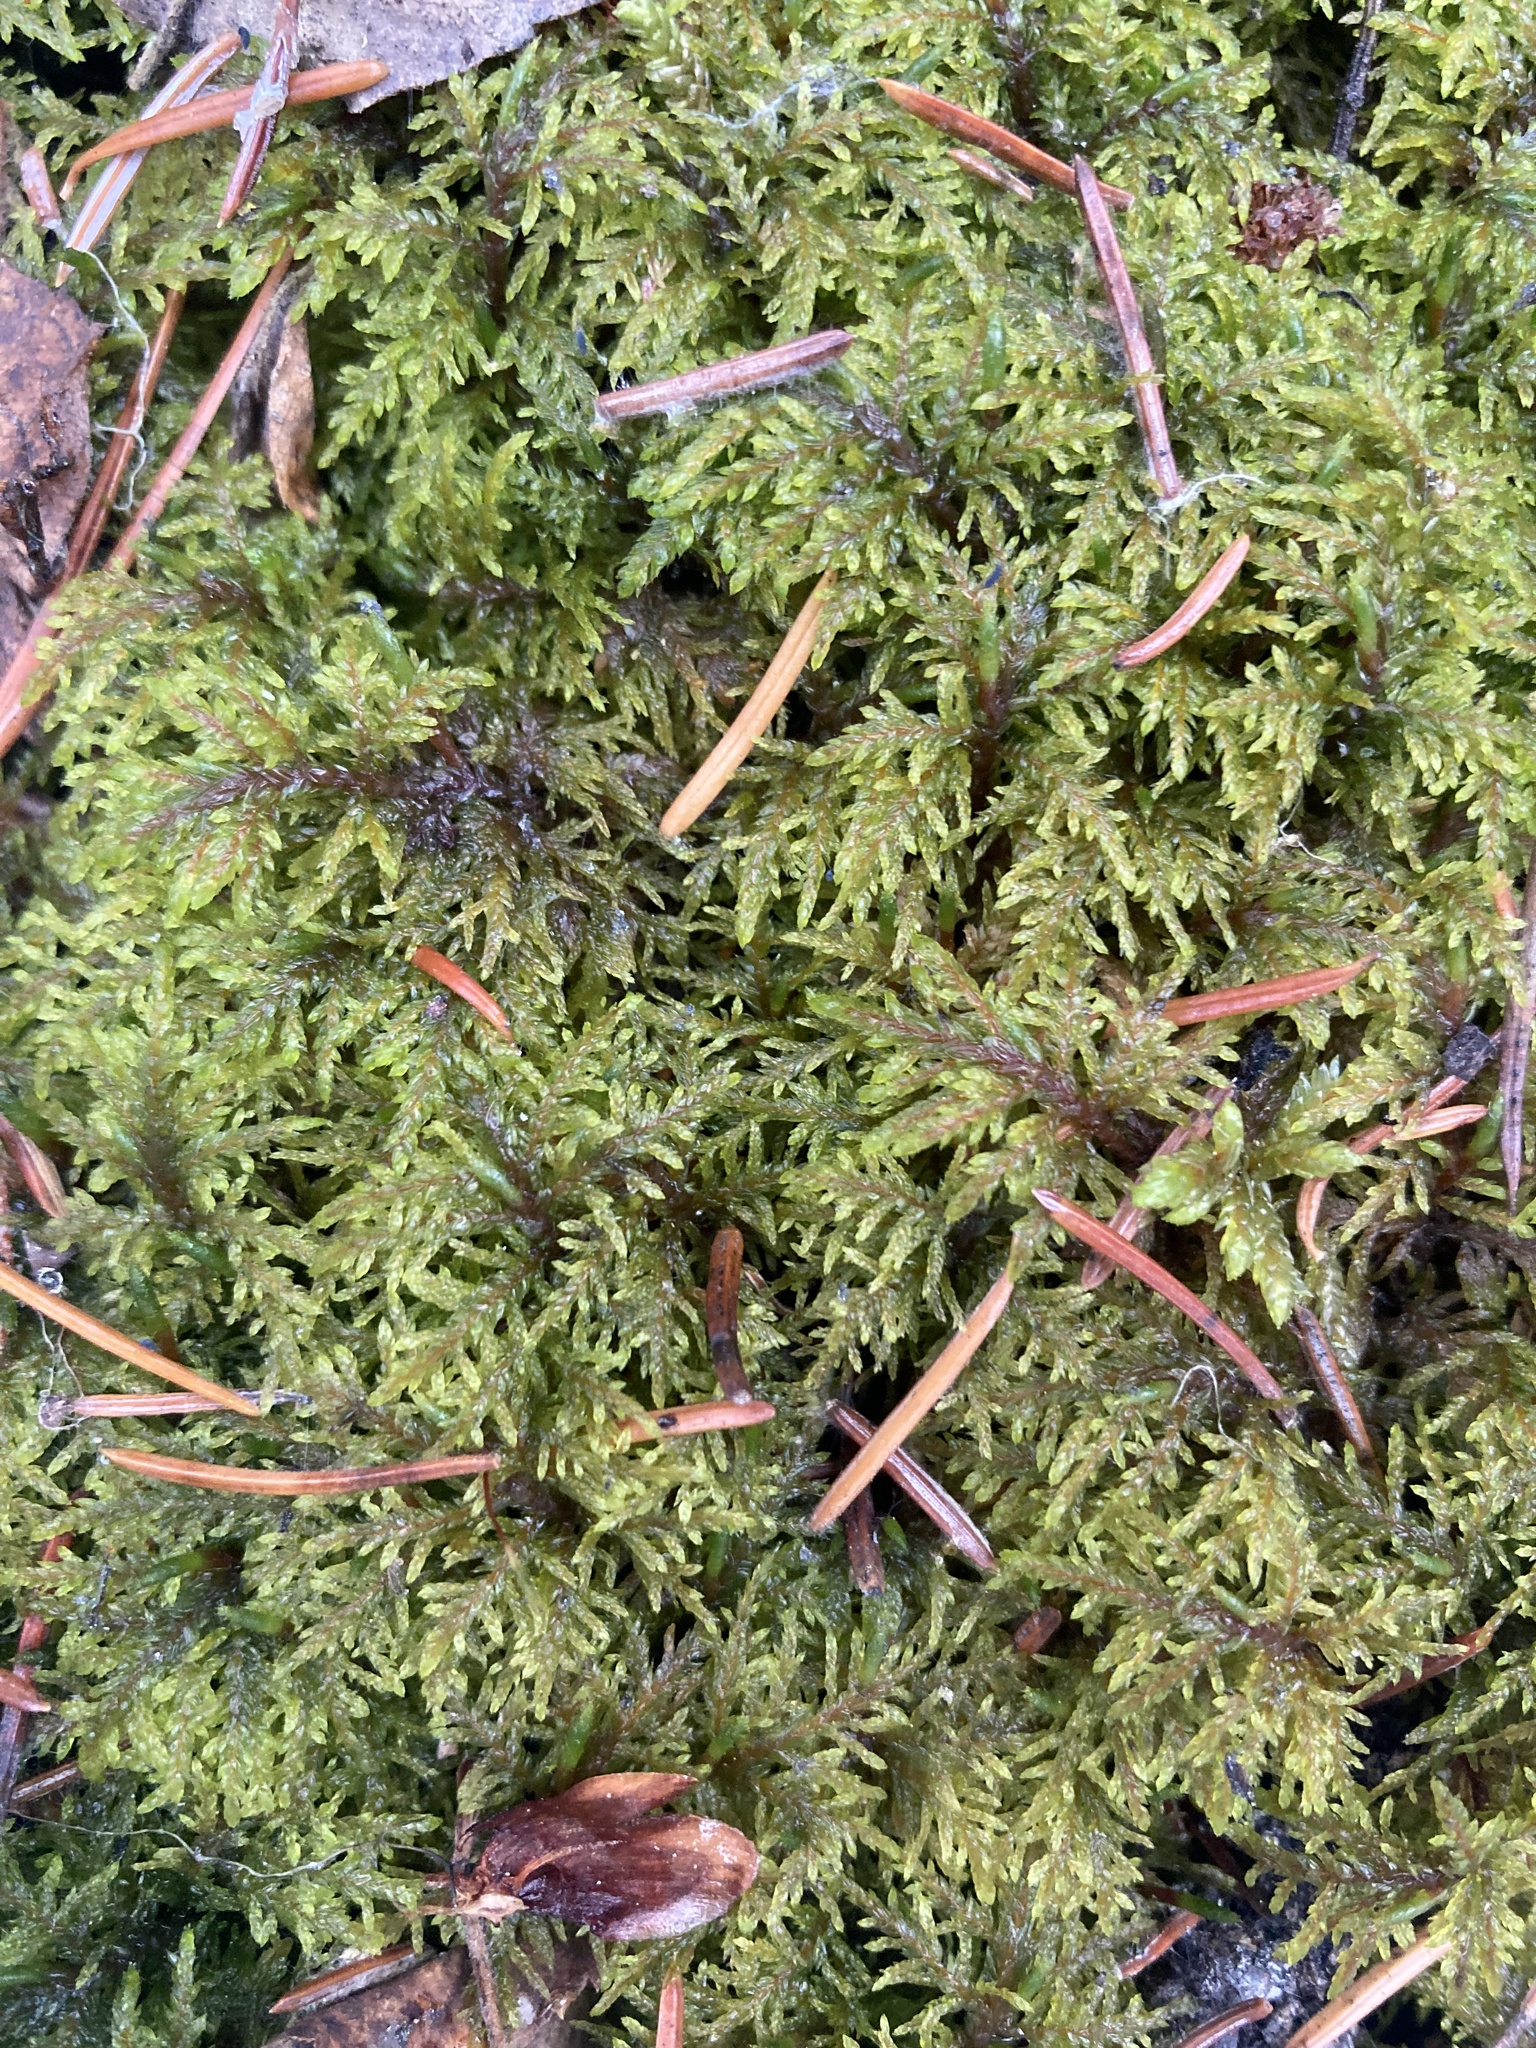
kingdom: Plantae
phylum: Bryophyta
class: Bryopsida
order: Hypnales
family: Hylocomiaceae
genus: Hylocomium
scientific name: Hylocomium splendens
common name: Stairstep moss
